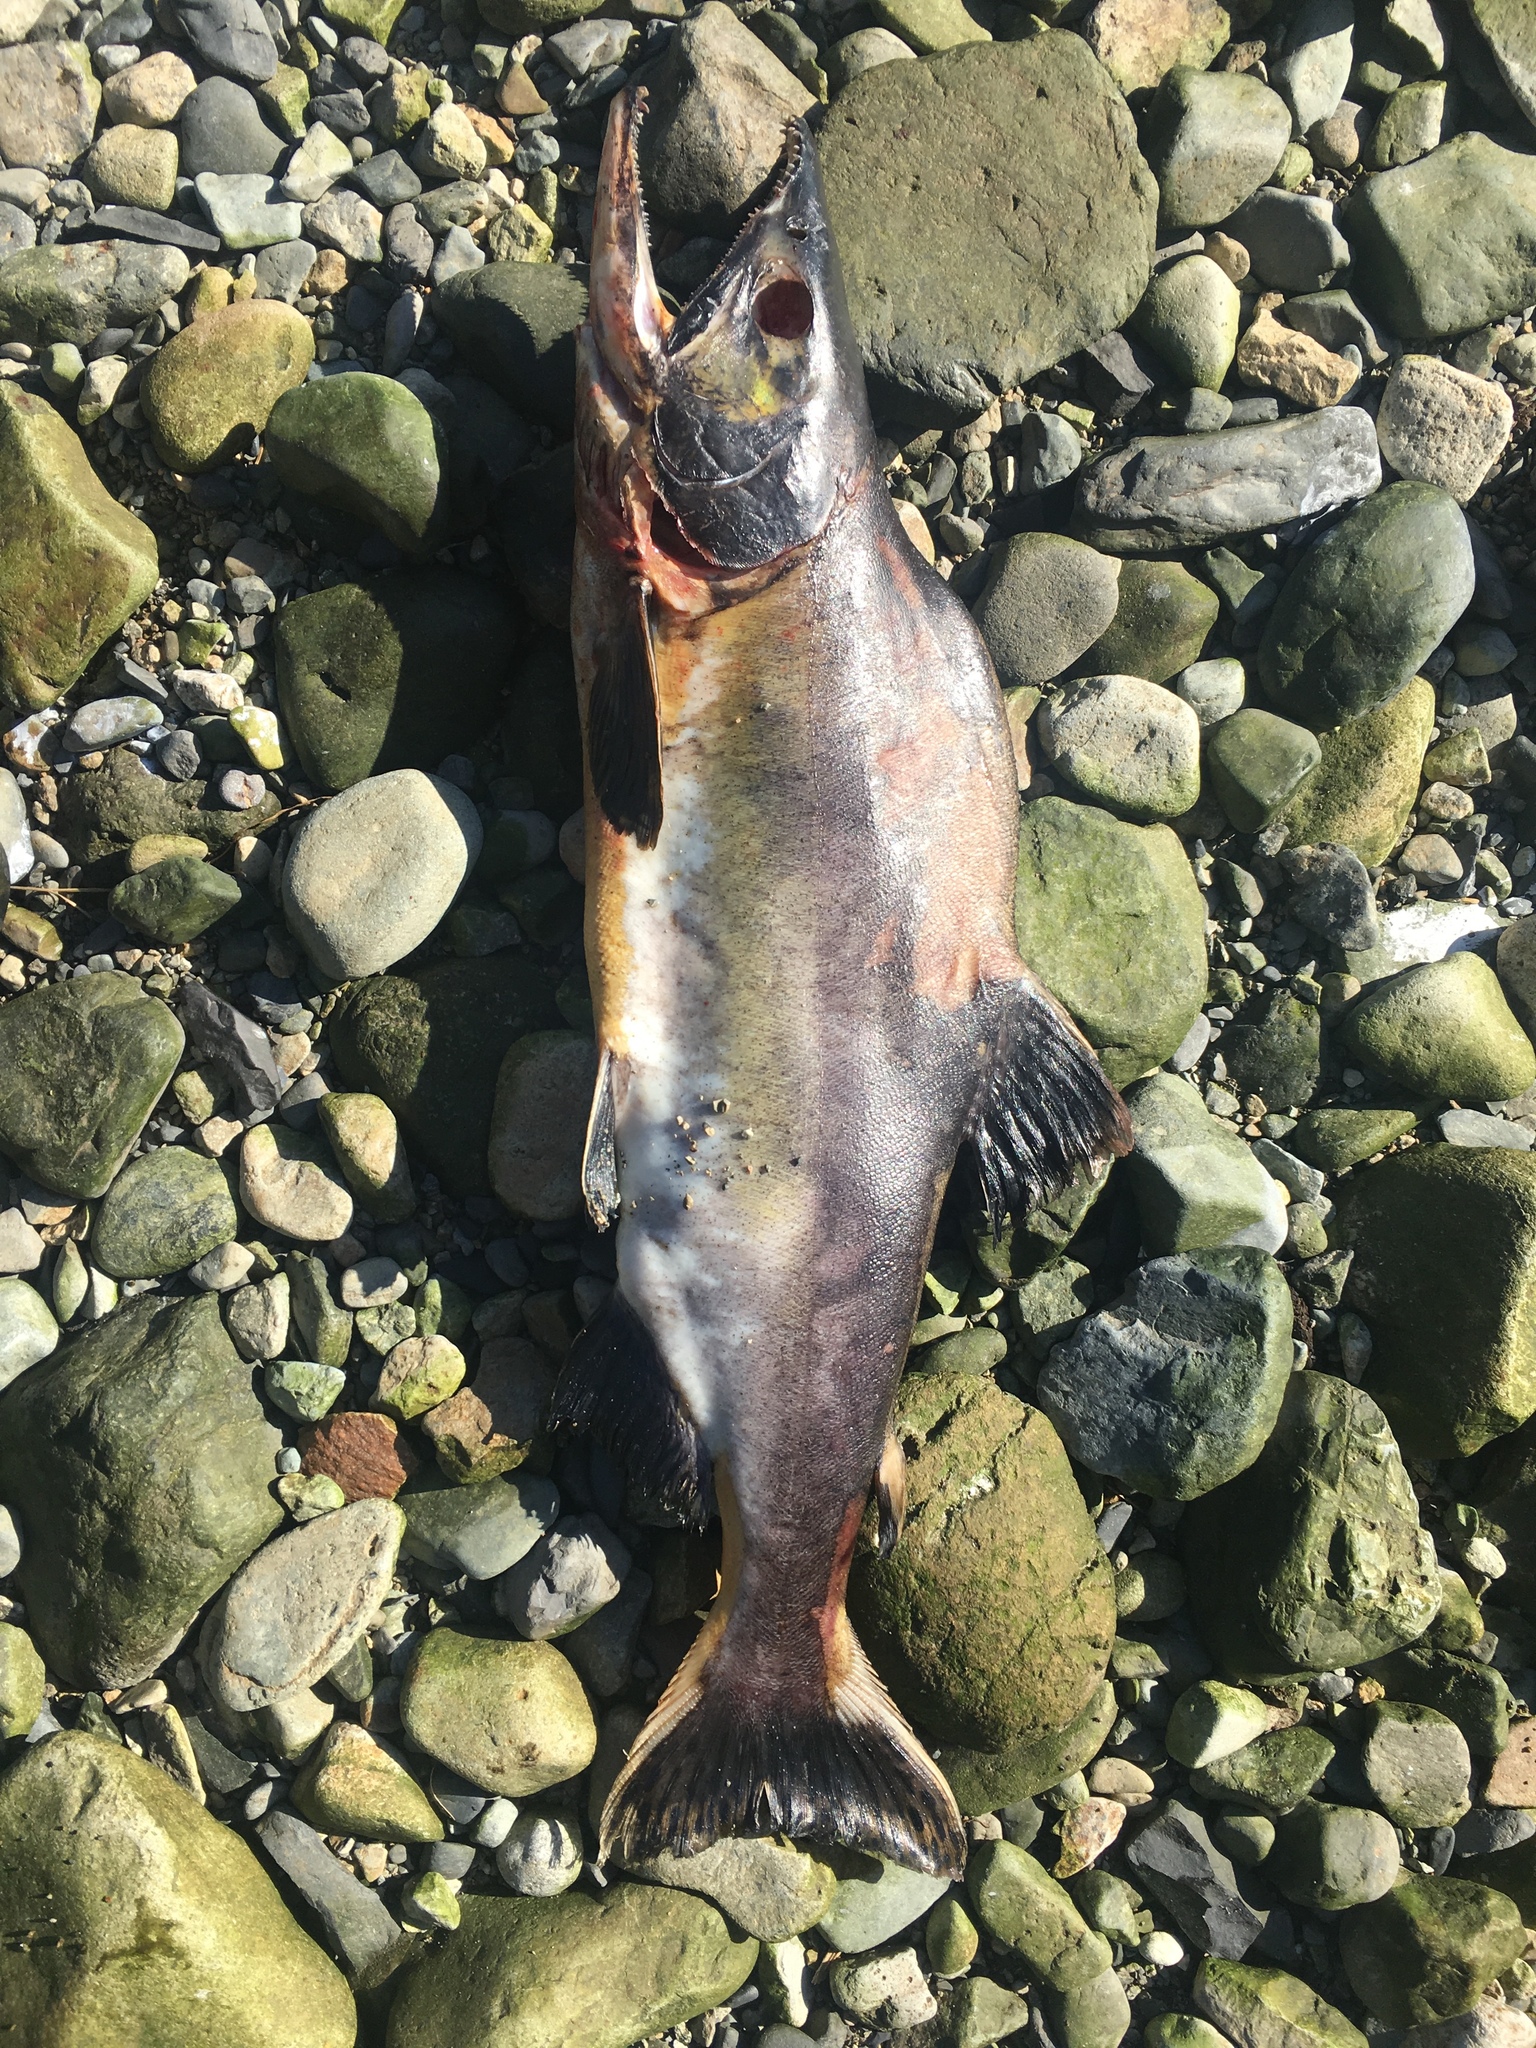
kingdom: Animalia
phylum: Chordata
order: Salmoniformes
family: Salmonidae
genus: Oncorhynchus
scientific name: Oncorhynchus gorbuscha
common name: Humpback salmon
